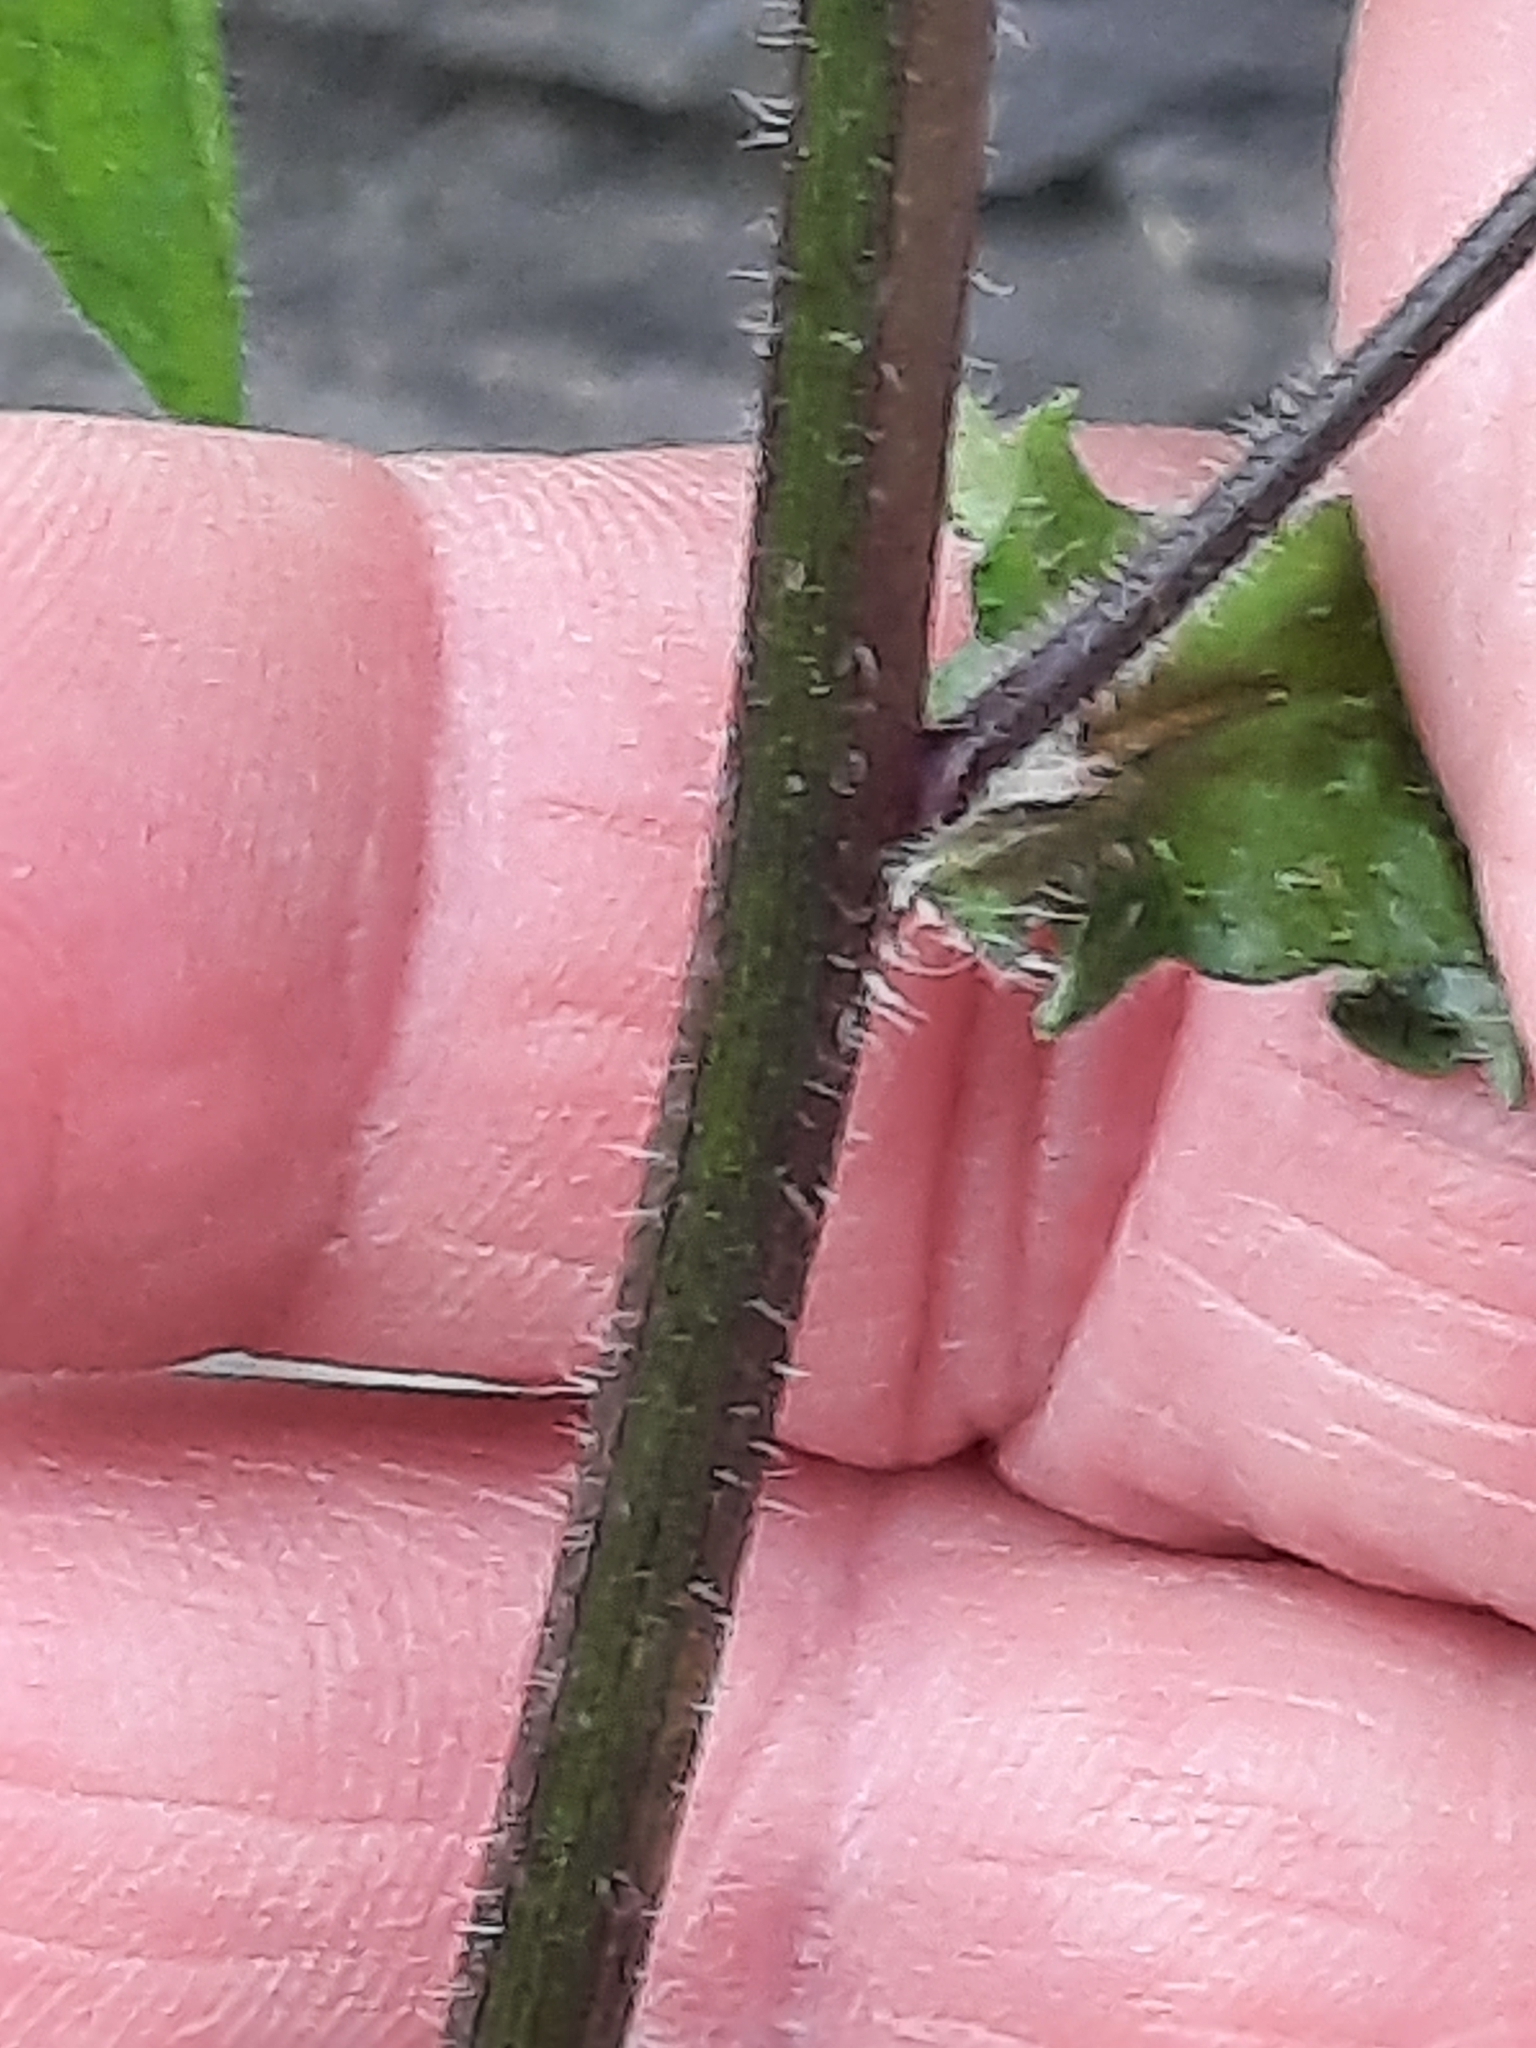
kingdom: Plantae
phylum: Tracheophyta
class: Magnoliopsida
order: Asterales
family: Asteraceae
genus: Lapsana
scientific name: Lapsana communis
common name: Nipplewort
